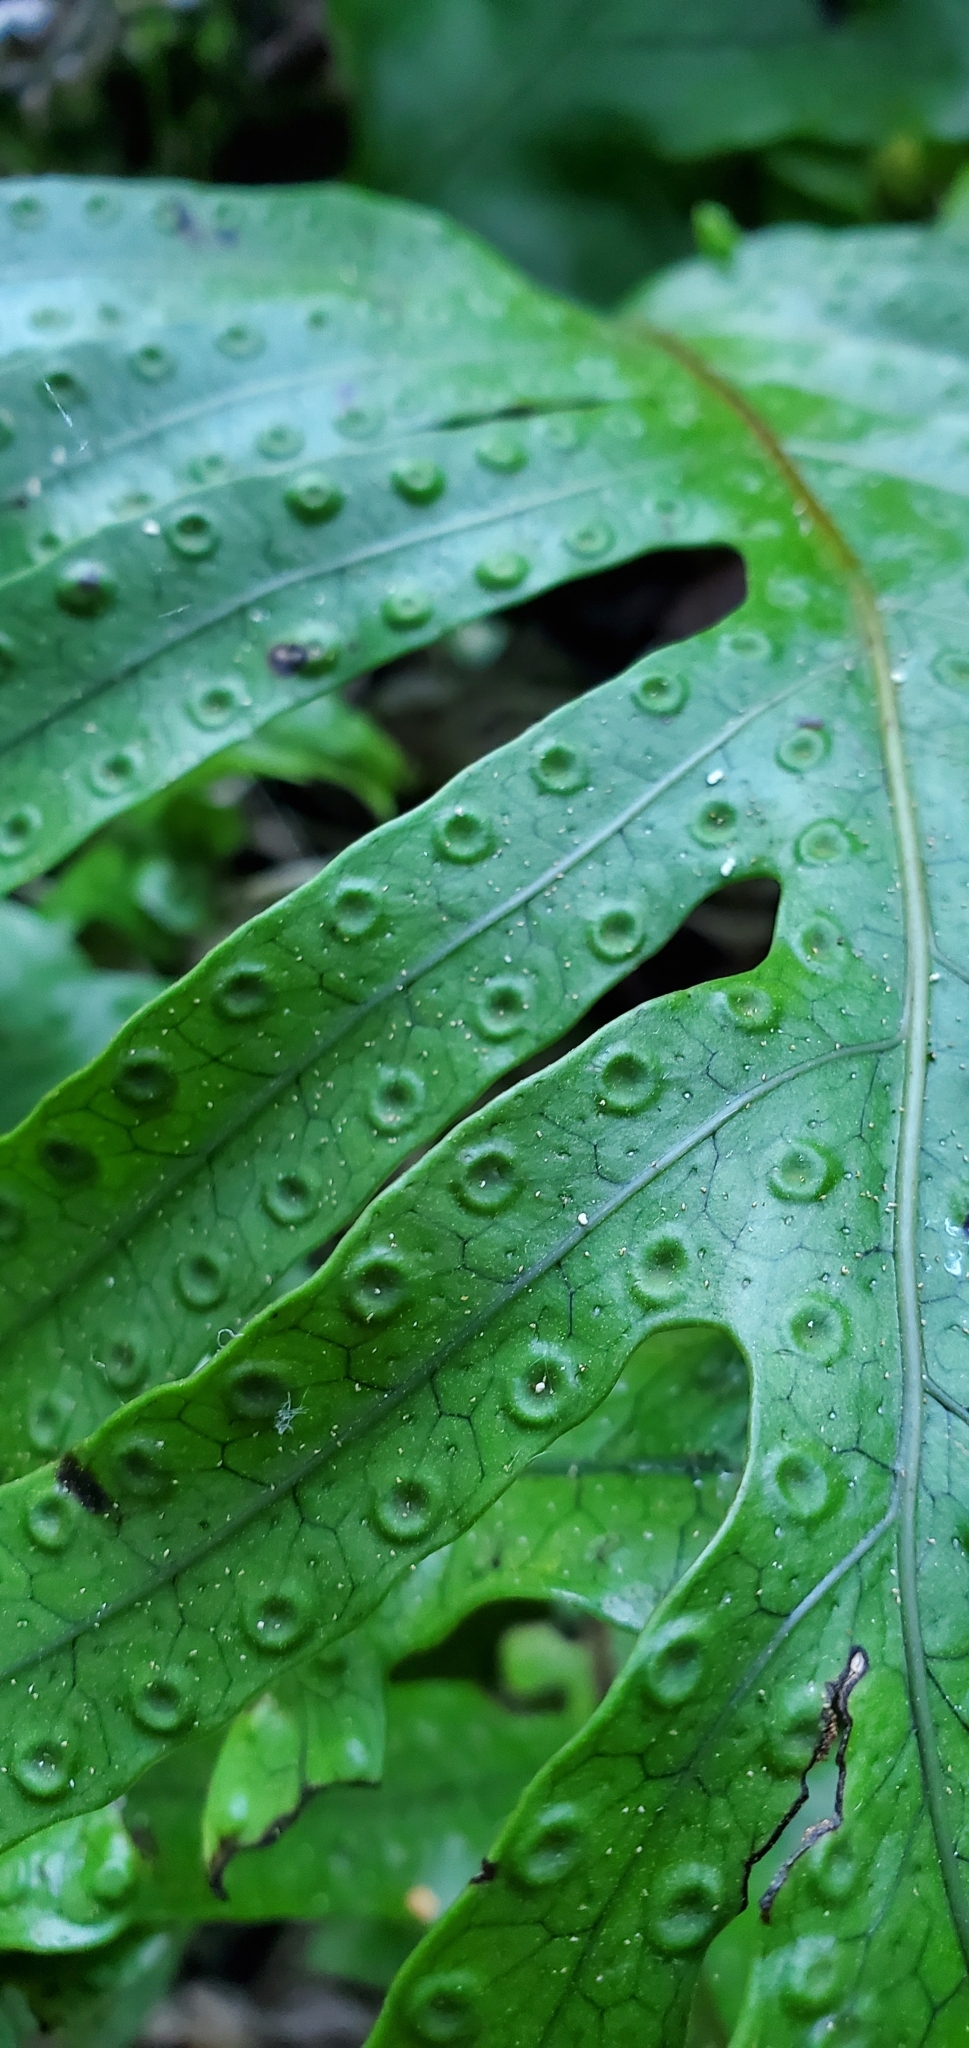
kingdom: Plantae
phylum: Tracheophyta
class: Polypodiopsida
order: Polypodiales
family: Polypodiaceae
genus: Lecanopteris
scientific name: Lecanopteris pustulata
